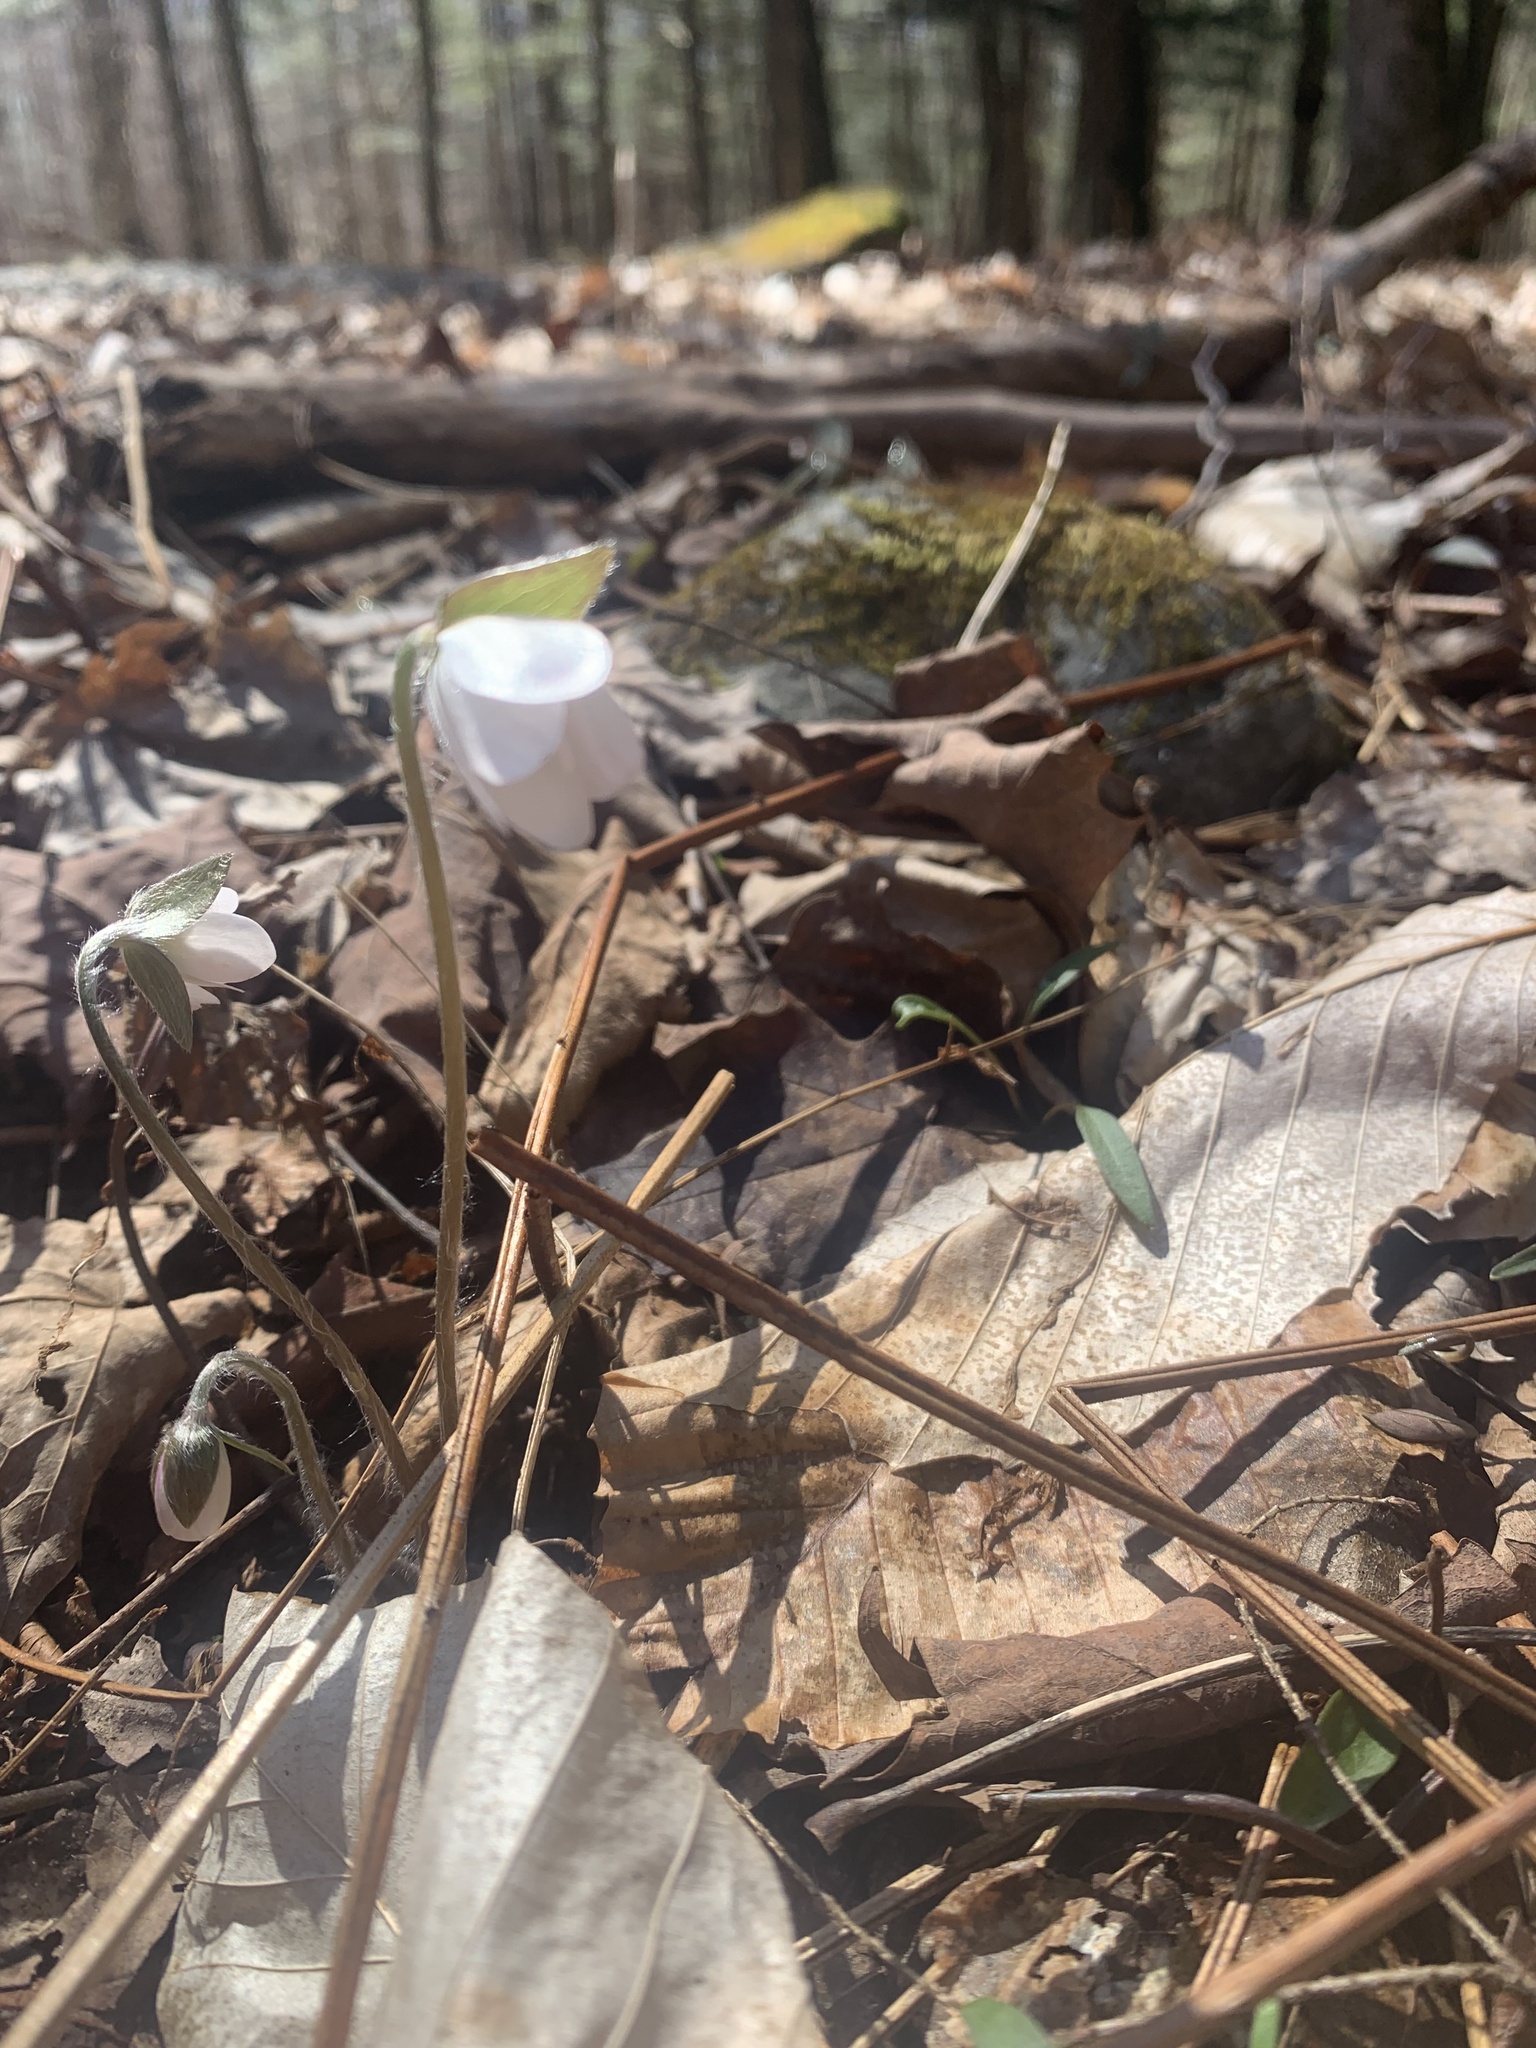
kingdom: Plantae
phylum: Tracheophyta
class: Magnoliopsida
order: Ranunculales
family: Ranunculaceae
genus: Hepatica
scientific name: Hepatica acutiloba
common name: Sharp-lobed hepatica
